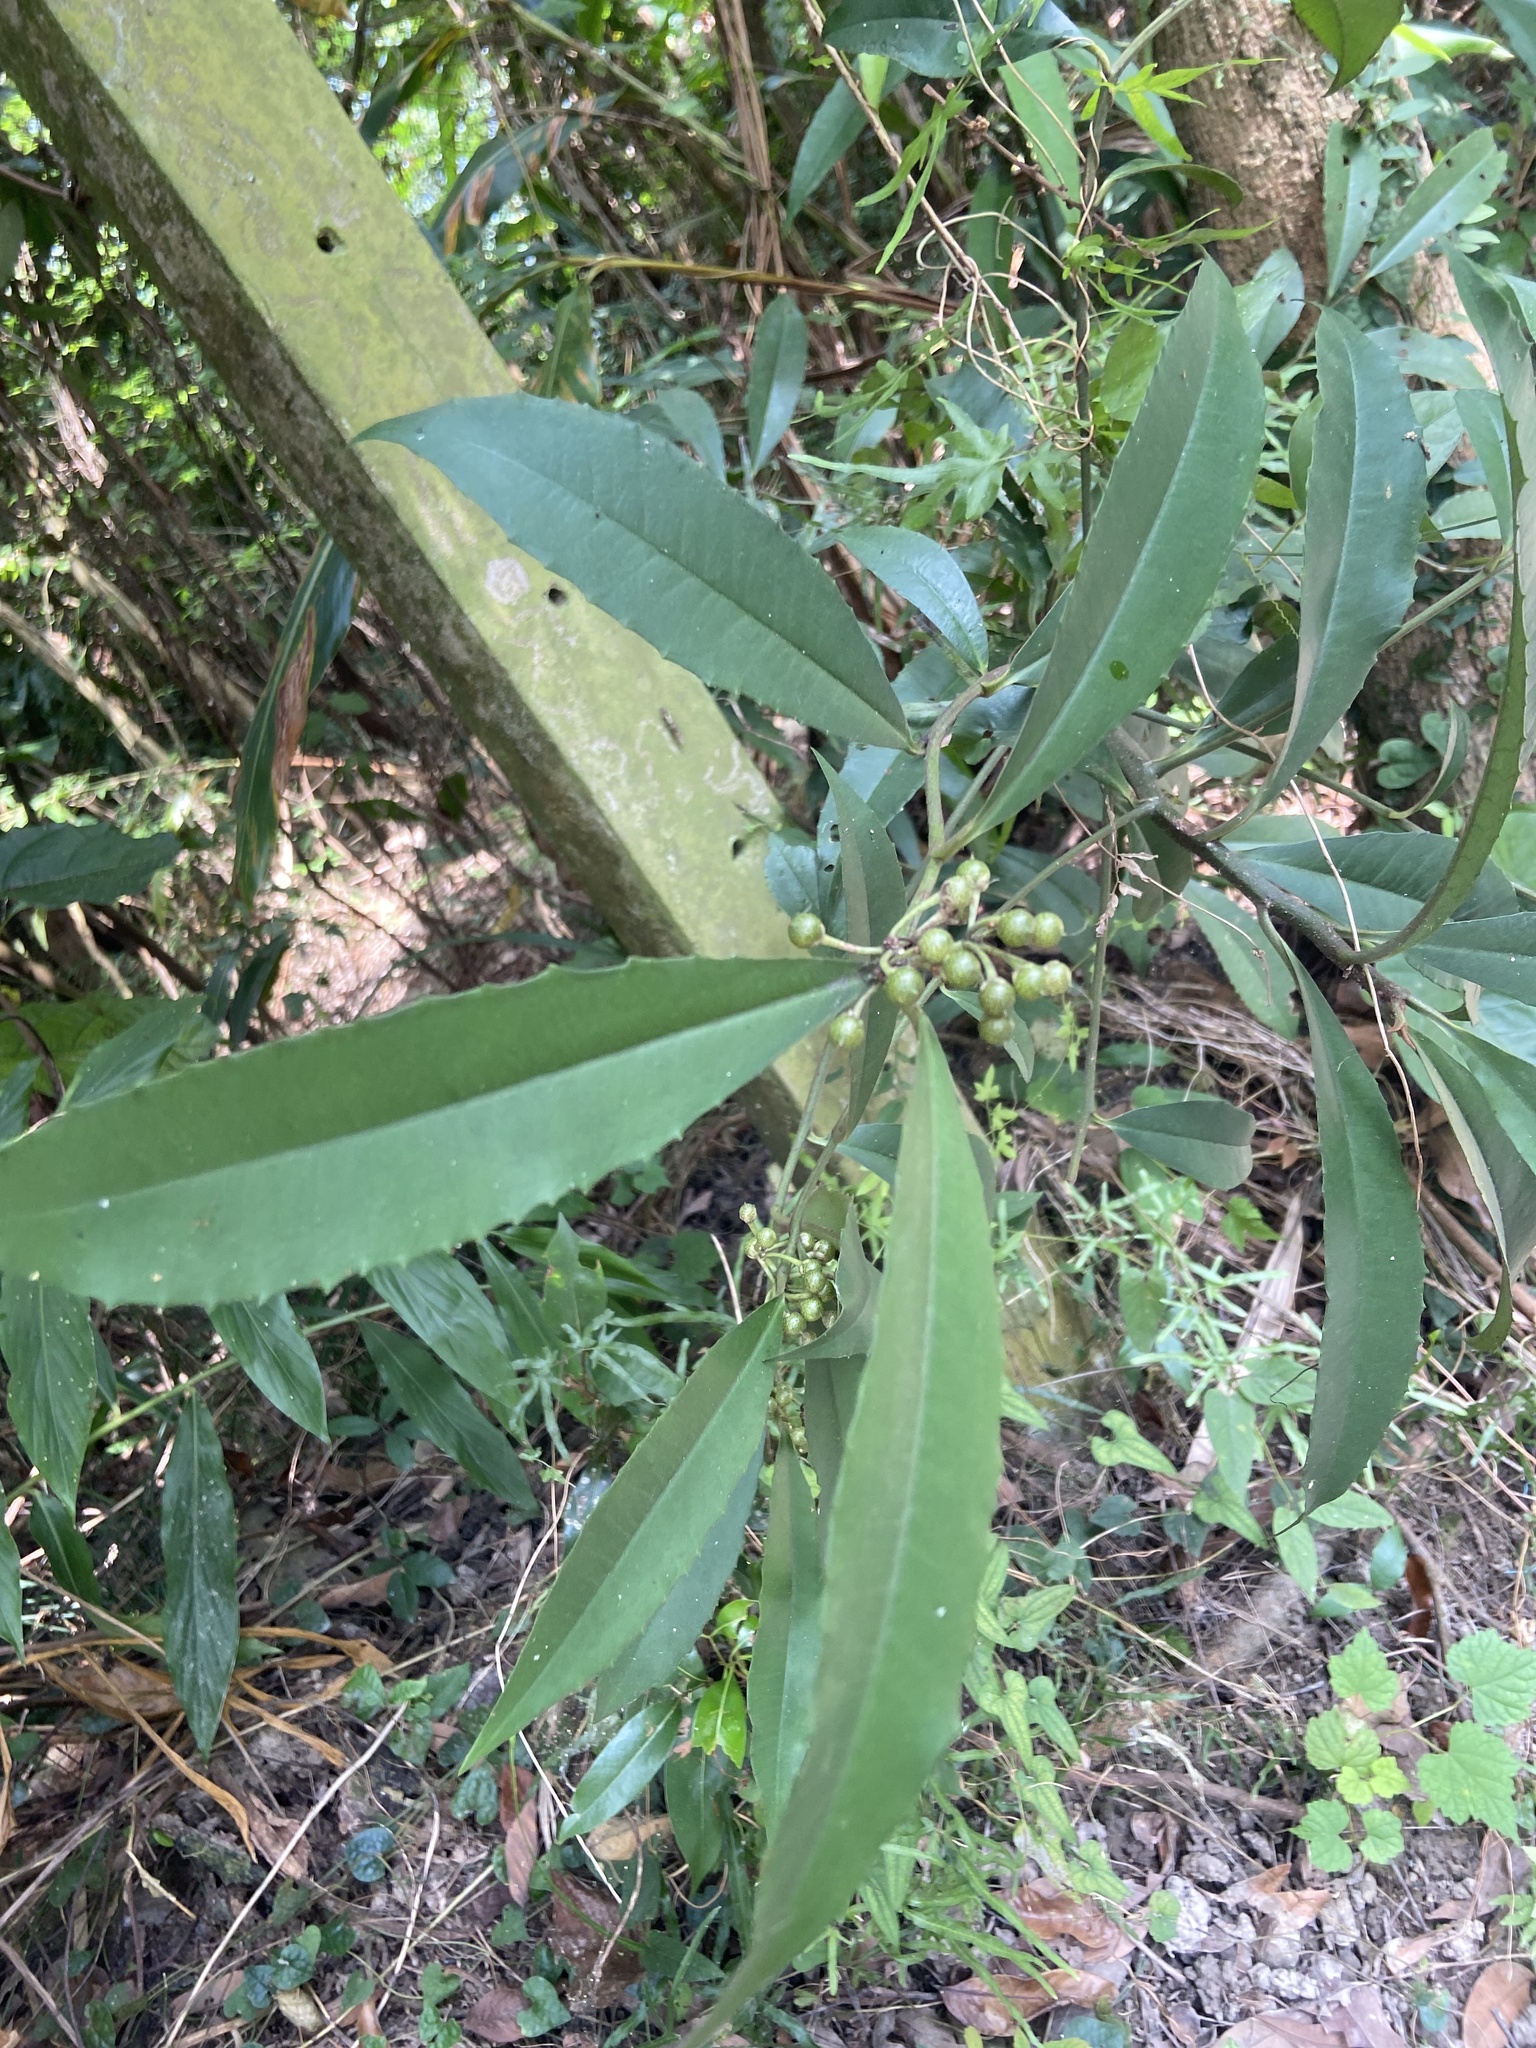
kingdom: Plantae
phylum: Tracheophyta
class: Magnoliopsida
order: Ericales
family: Primulaceae
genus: Ardisia
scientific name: Ardisia cornudentata
